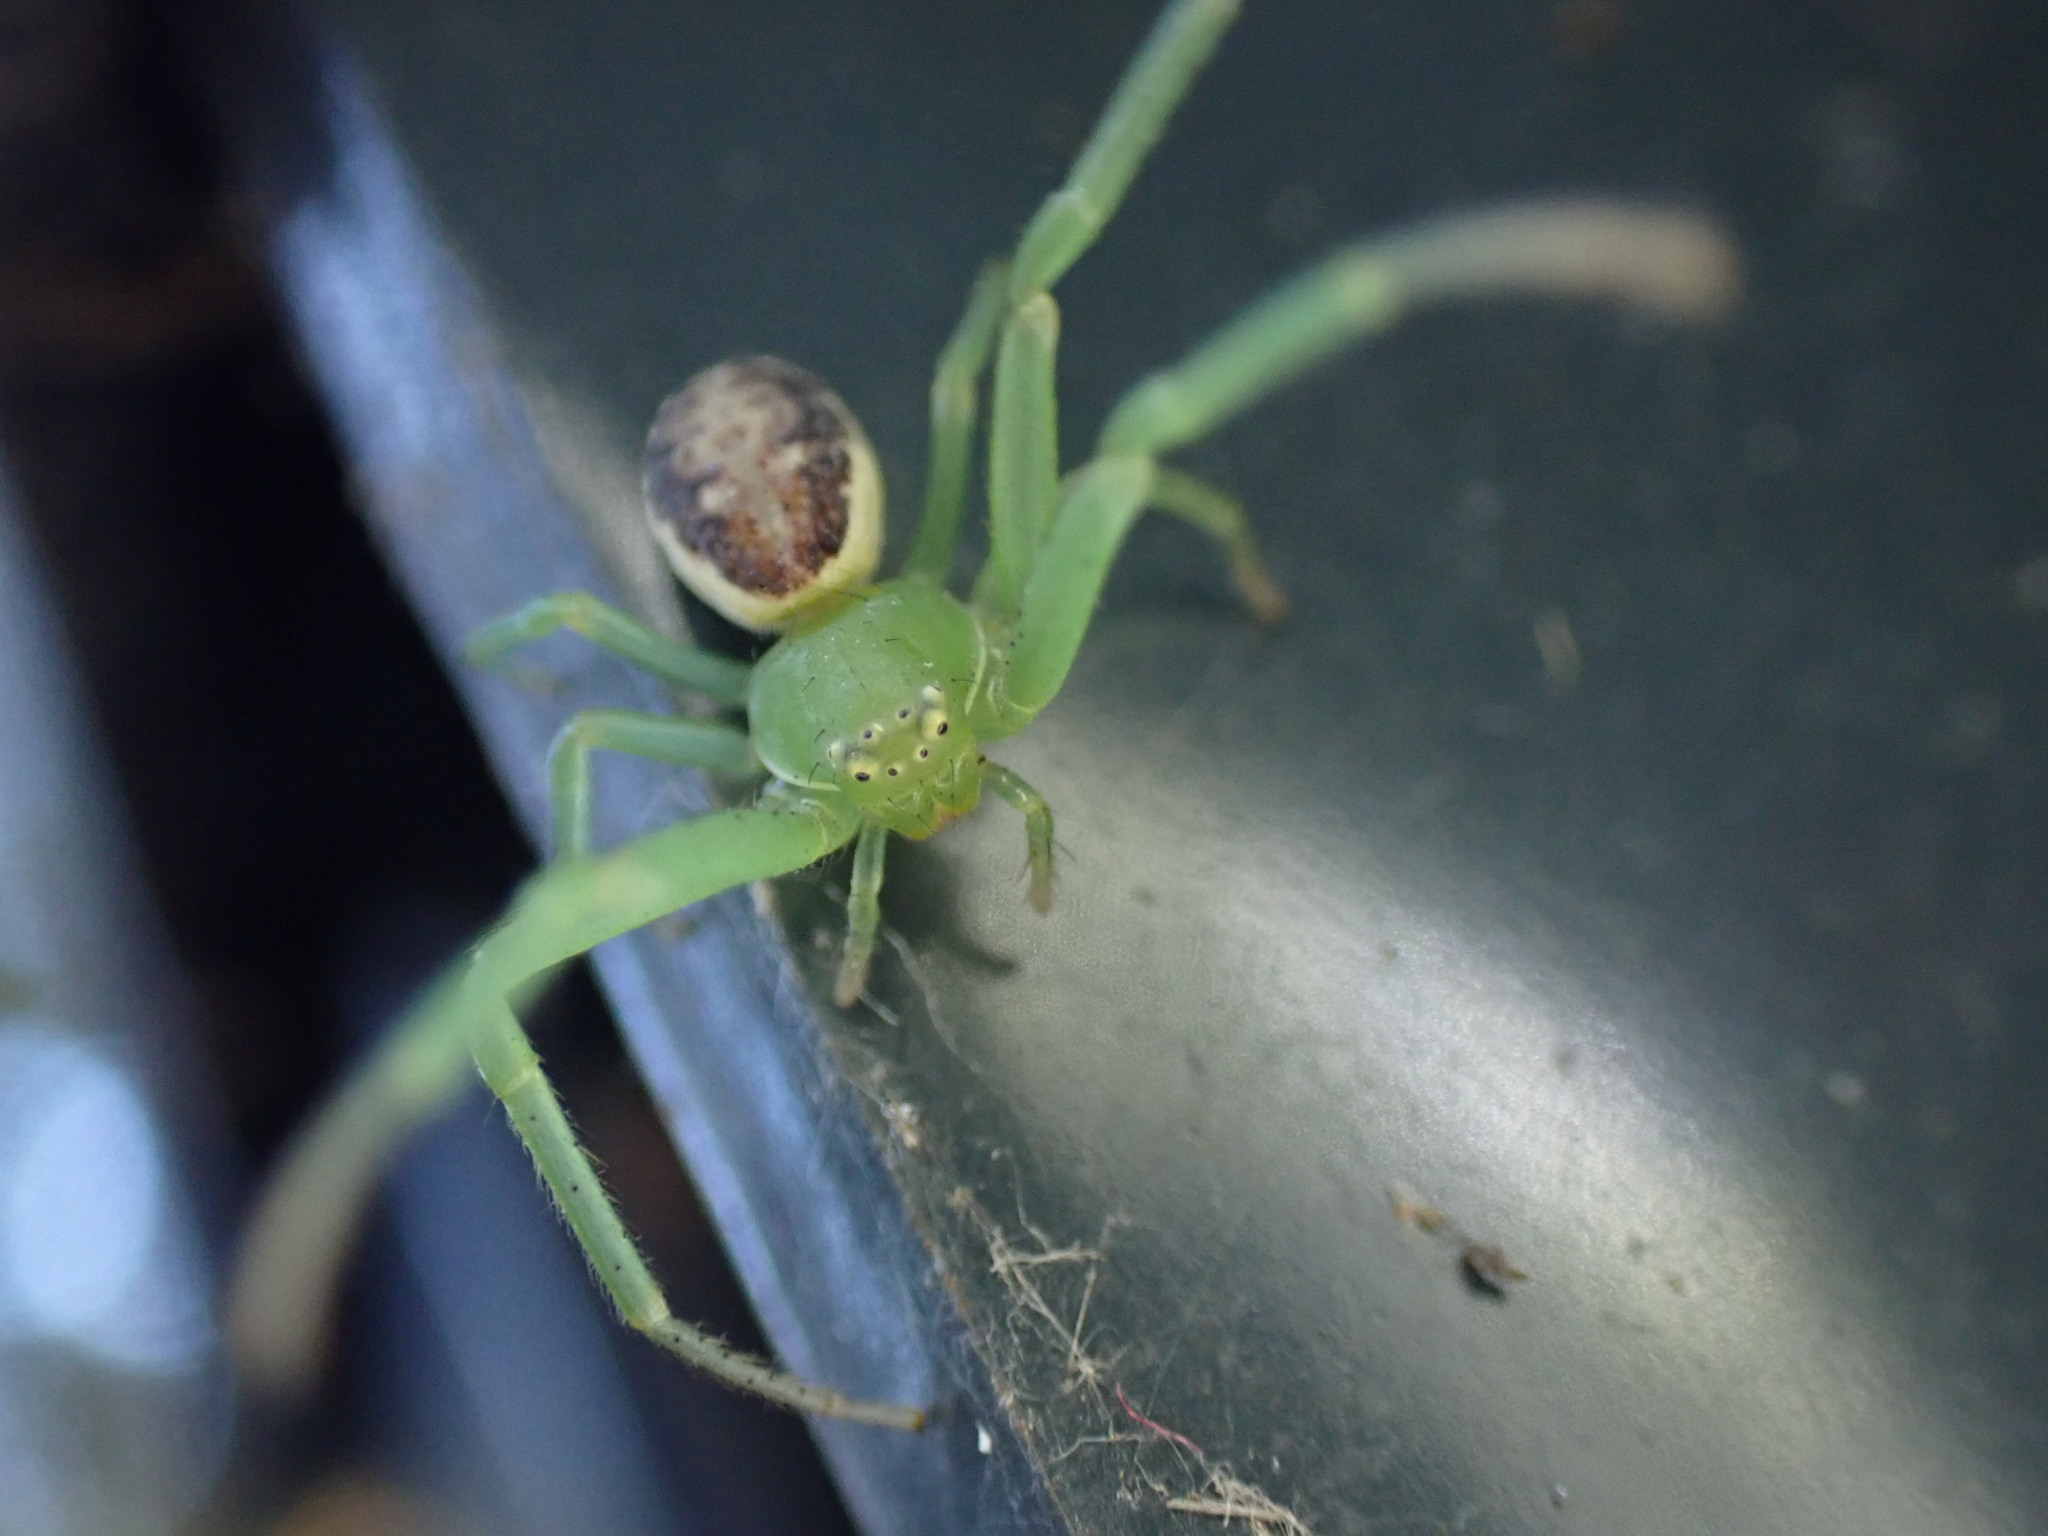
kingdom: Animalia
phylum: Arthropoda
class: Arachnida
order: Araneae
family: Thomisidae
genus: Diaea
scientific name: Diaea dorsata
